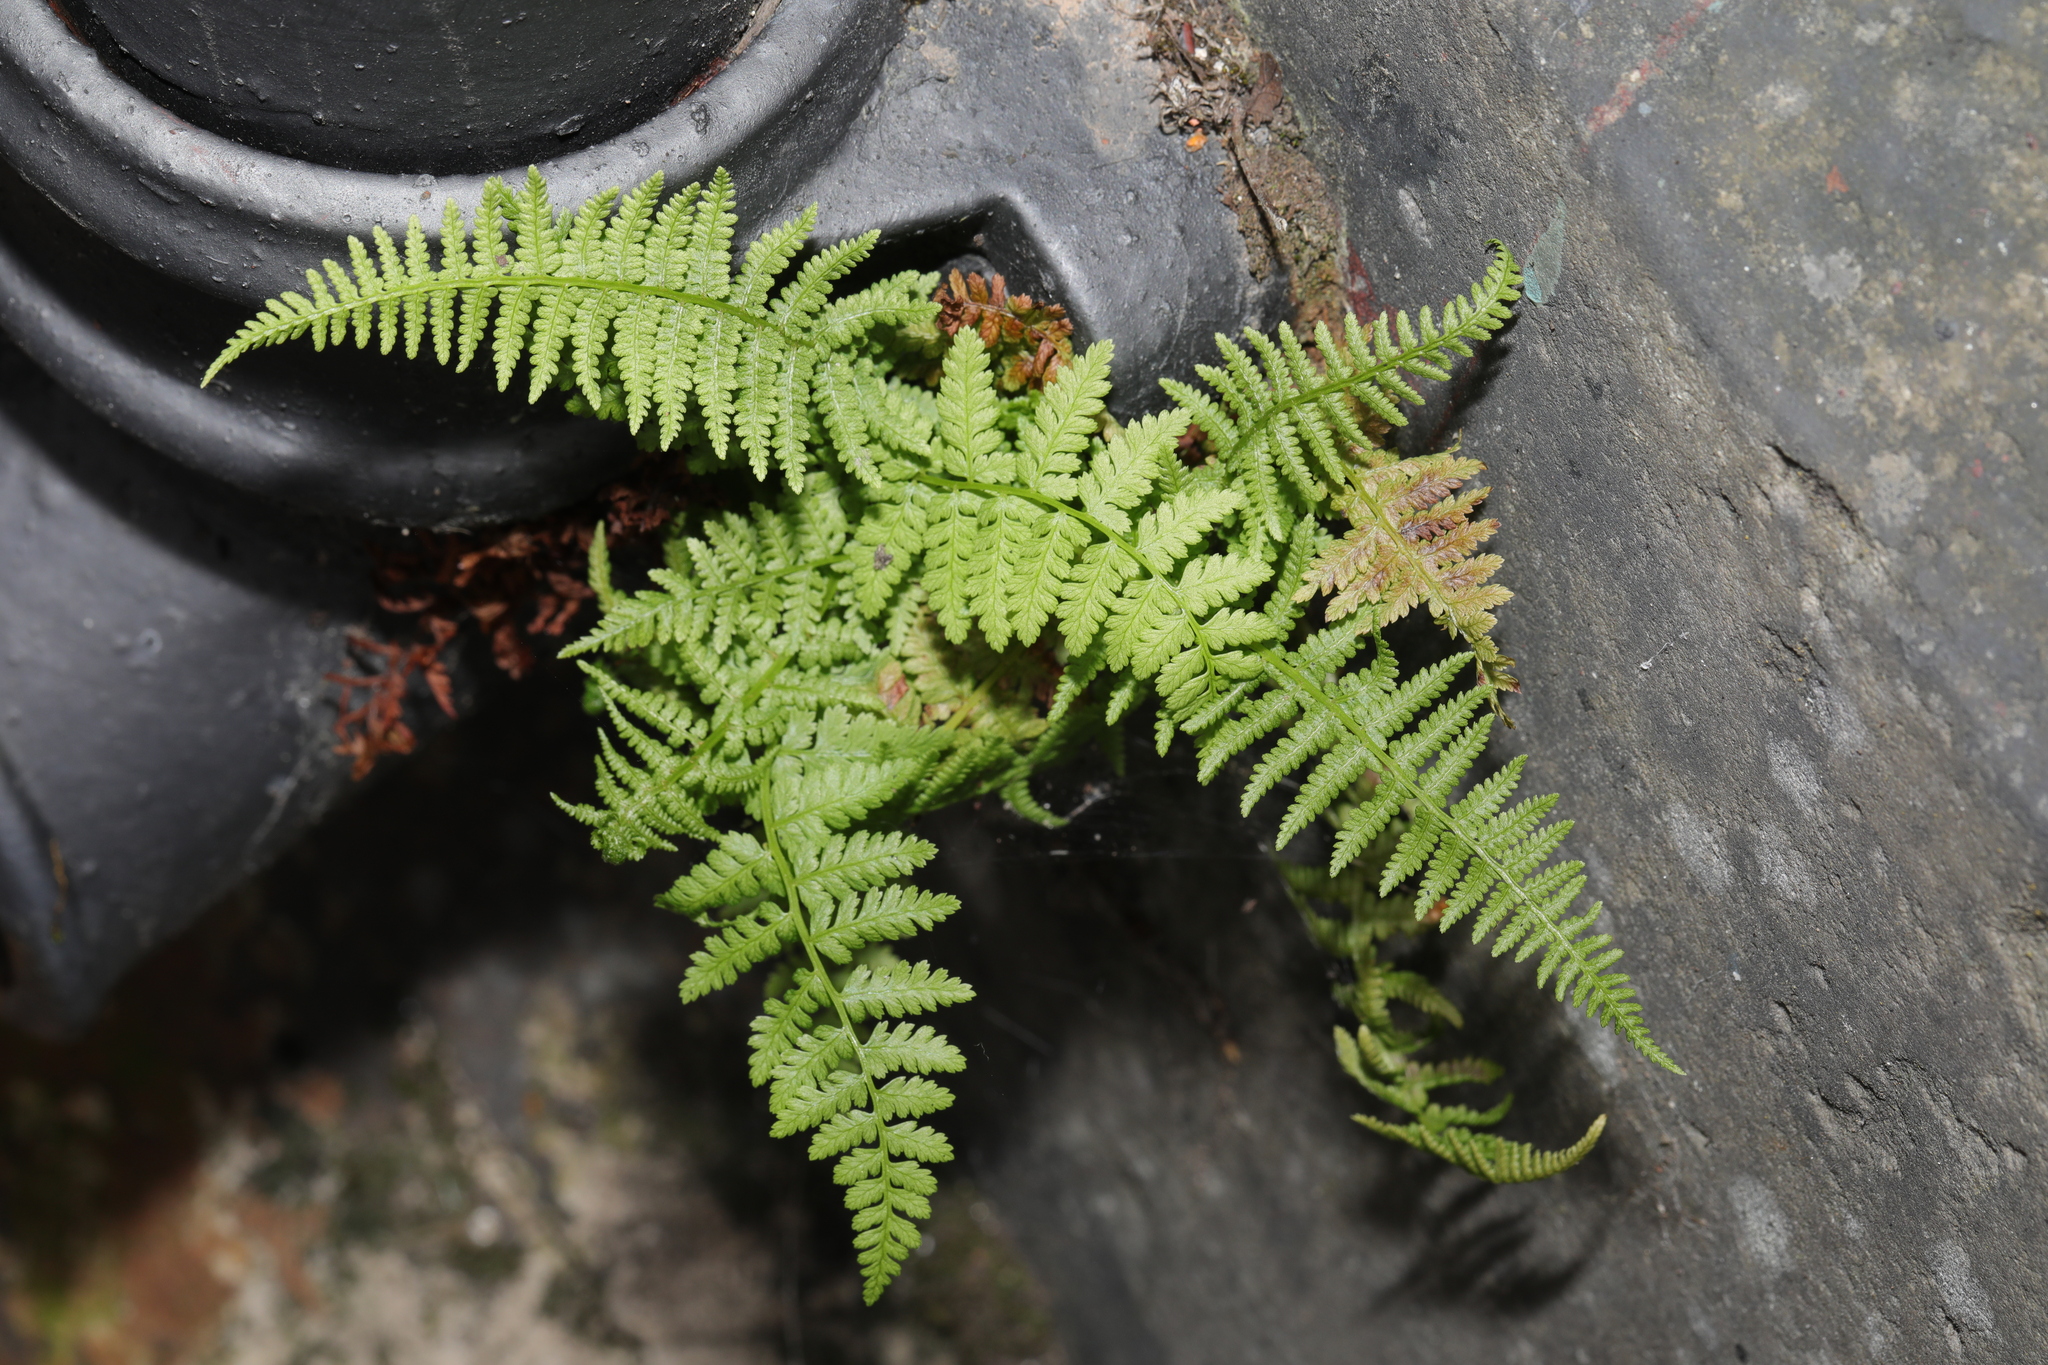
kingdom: Plantae
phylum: Tracheophyta
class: Polypodiopsida
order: Polypodiales
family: Athyriaceae
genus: Athyrium
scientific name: Athyrium filix-femina
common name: Lady fern
